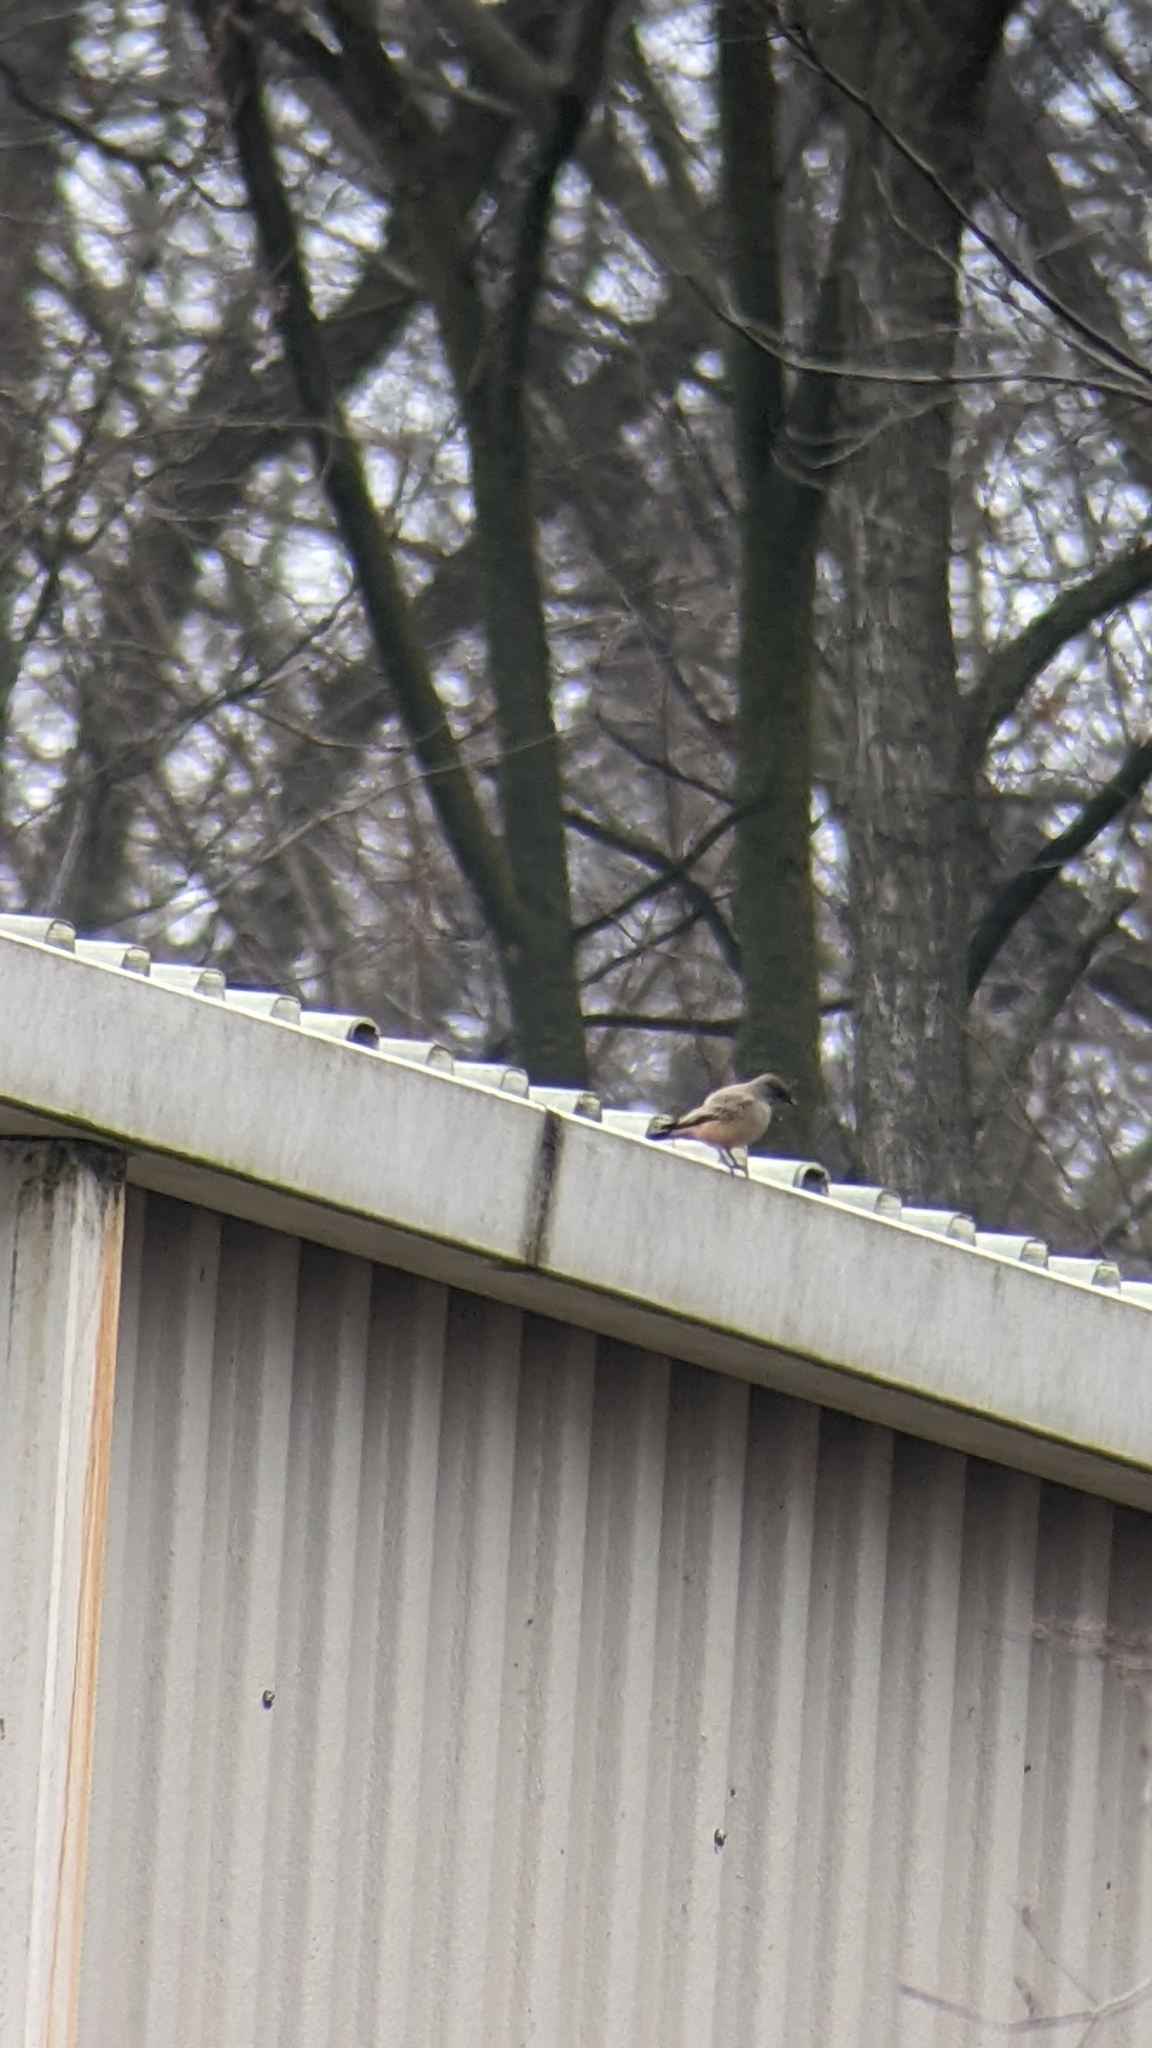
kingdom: Animalia
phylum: Chordata
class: Aves
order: Passeriformes
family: Tyrannidae
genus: Sayornis
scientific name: Sayornis saya
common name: Say's phoebe
